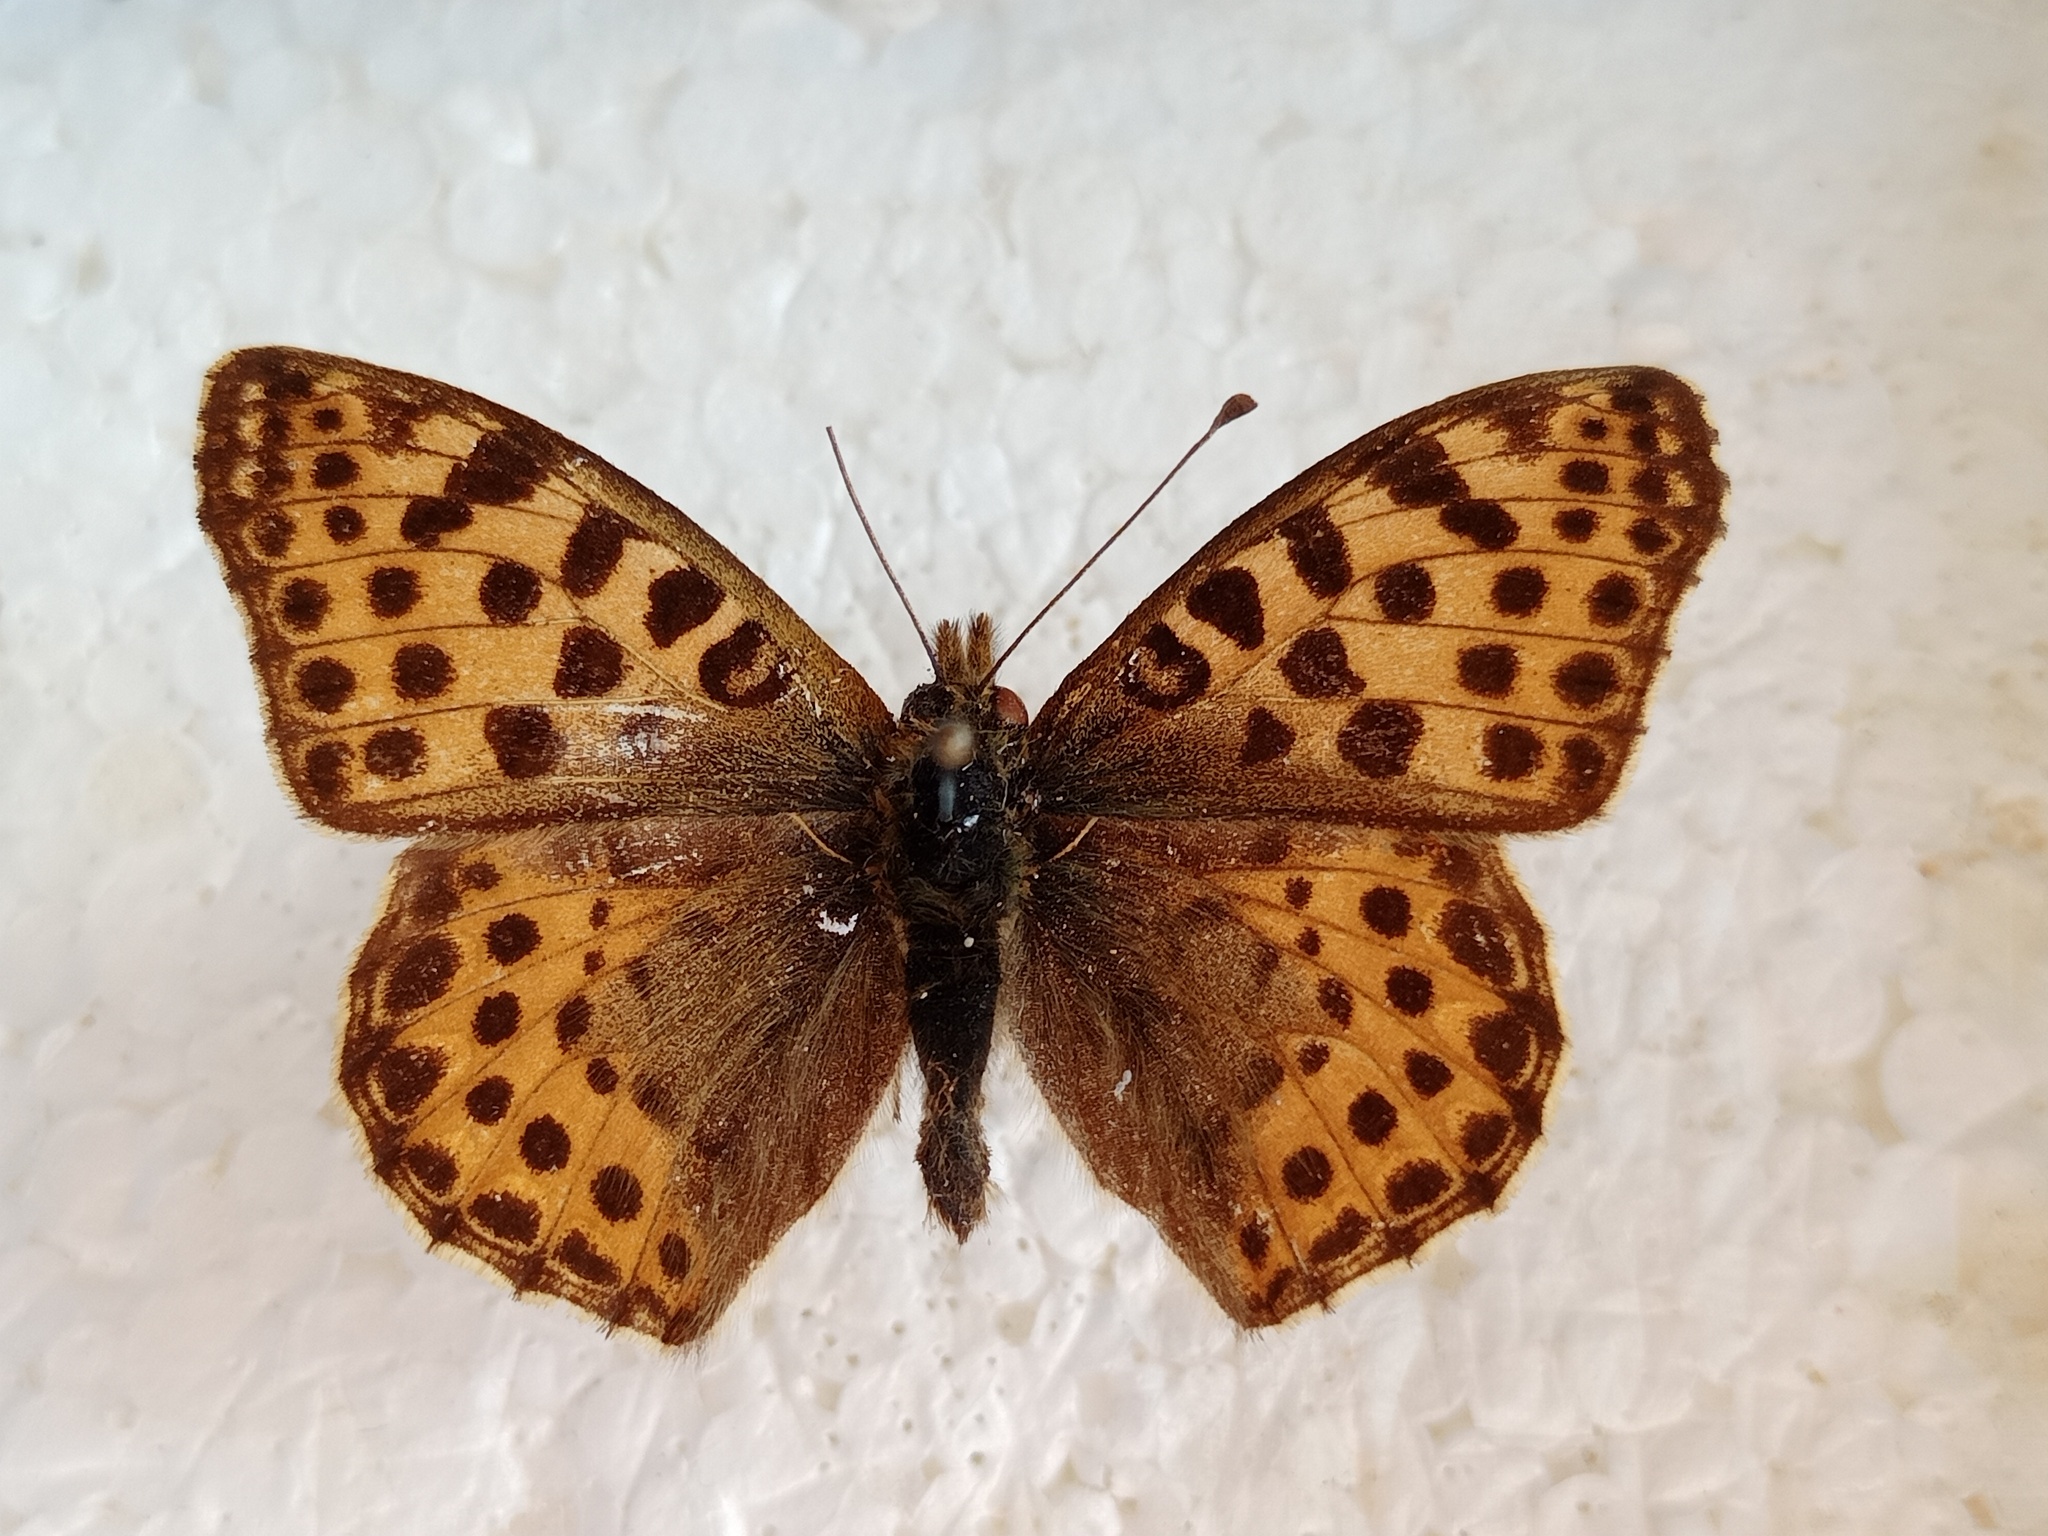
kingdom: Animalia
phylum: Arthropoda
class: Insecta
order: Lepidoptera
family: Nymphalidae
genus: Issoria
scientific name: Issoria lathonia
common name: Queen of spain fritillary
